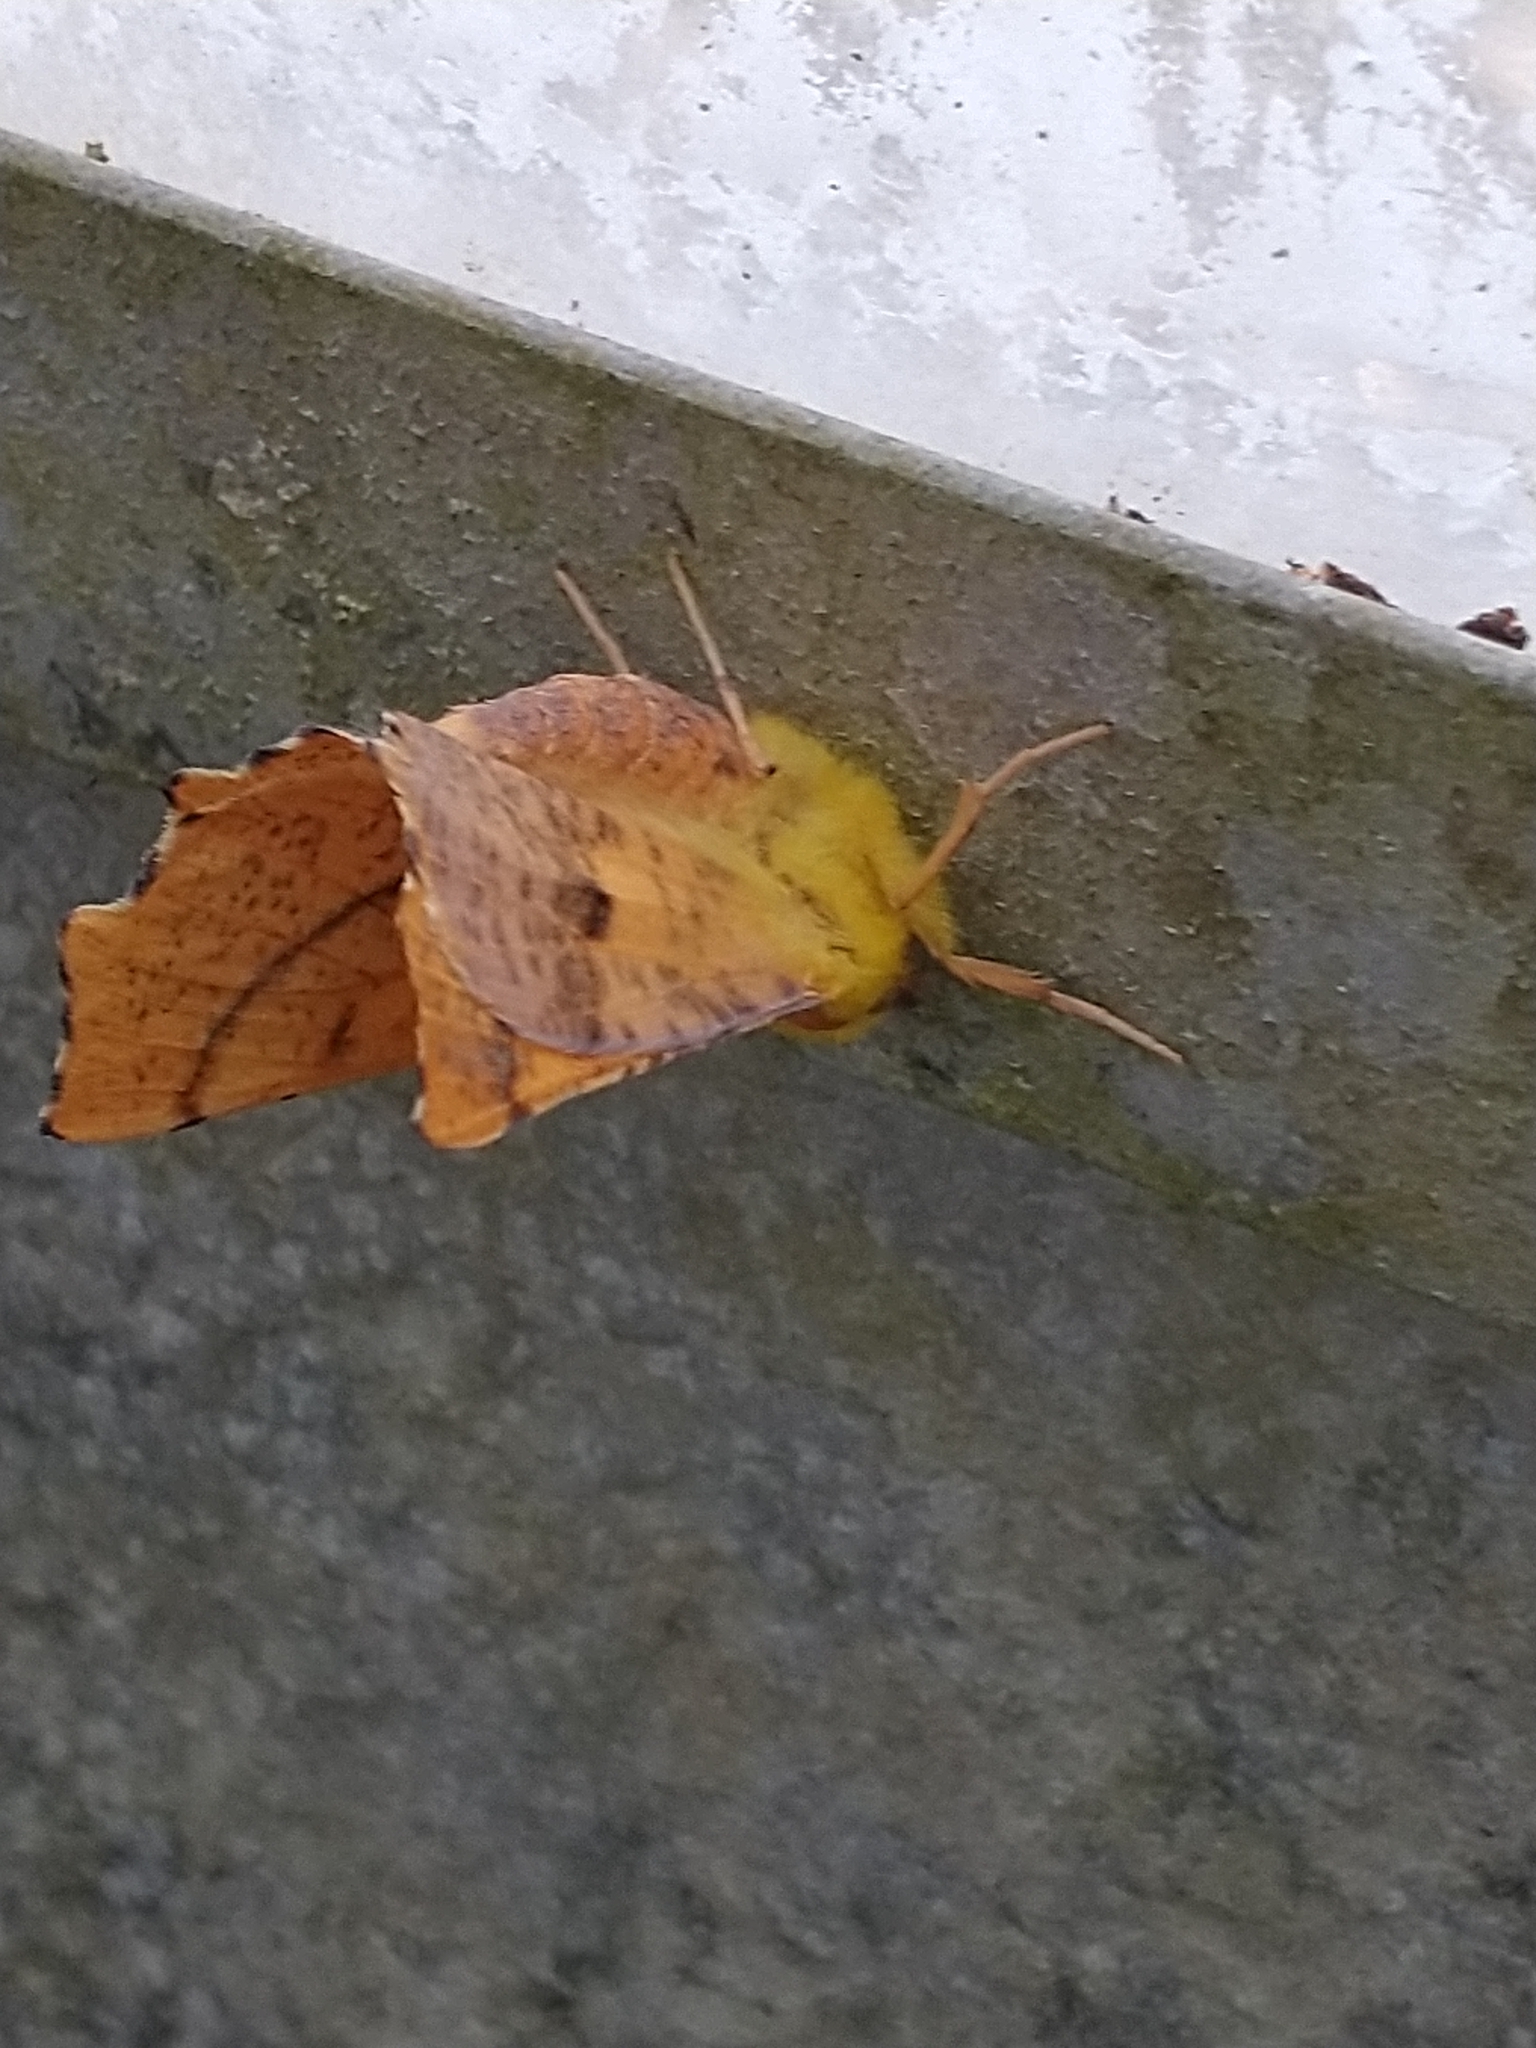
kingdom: Animalia
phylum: Arthropoda
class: Insecta
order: Lepidoptera
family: Geometridae
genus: Ennomos
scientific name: Ennomos alniaria
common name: Canary-shouldered thorn
